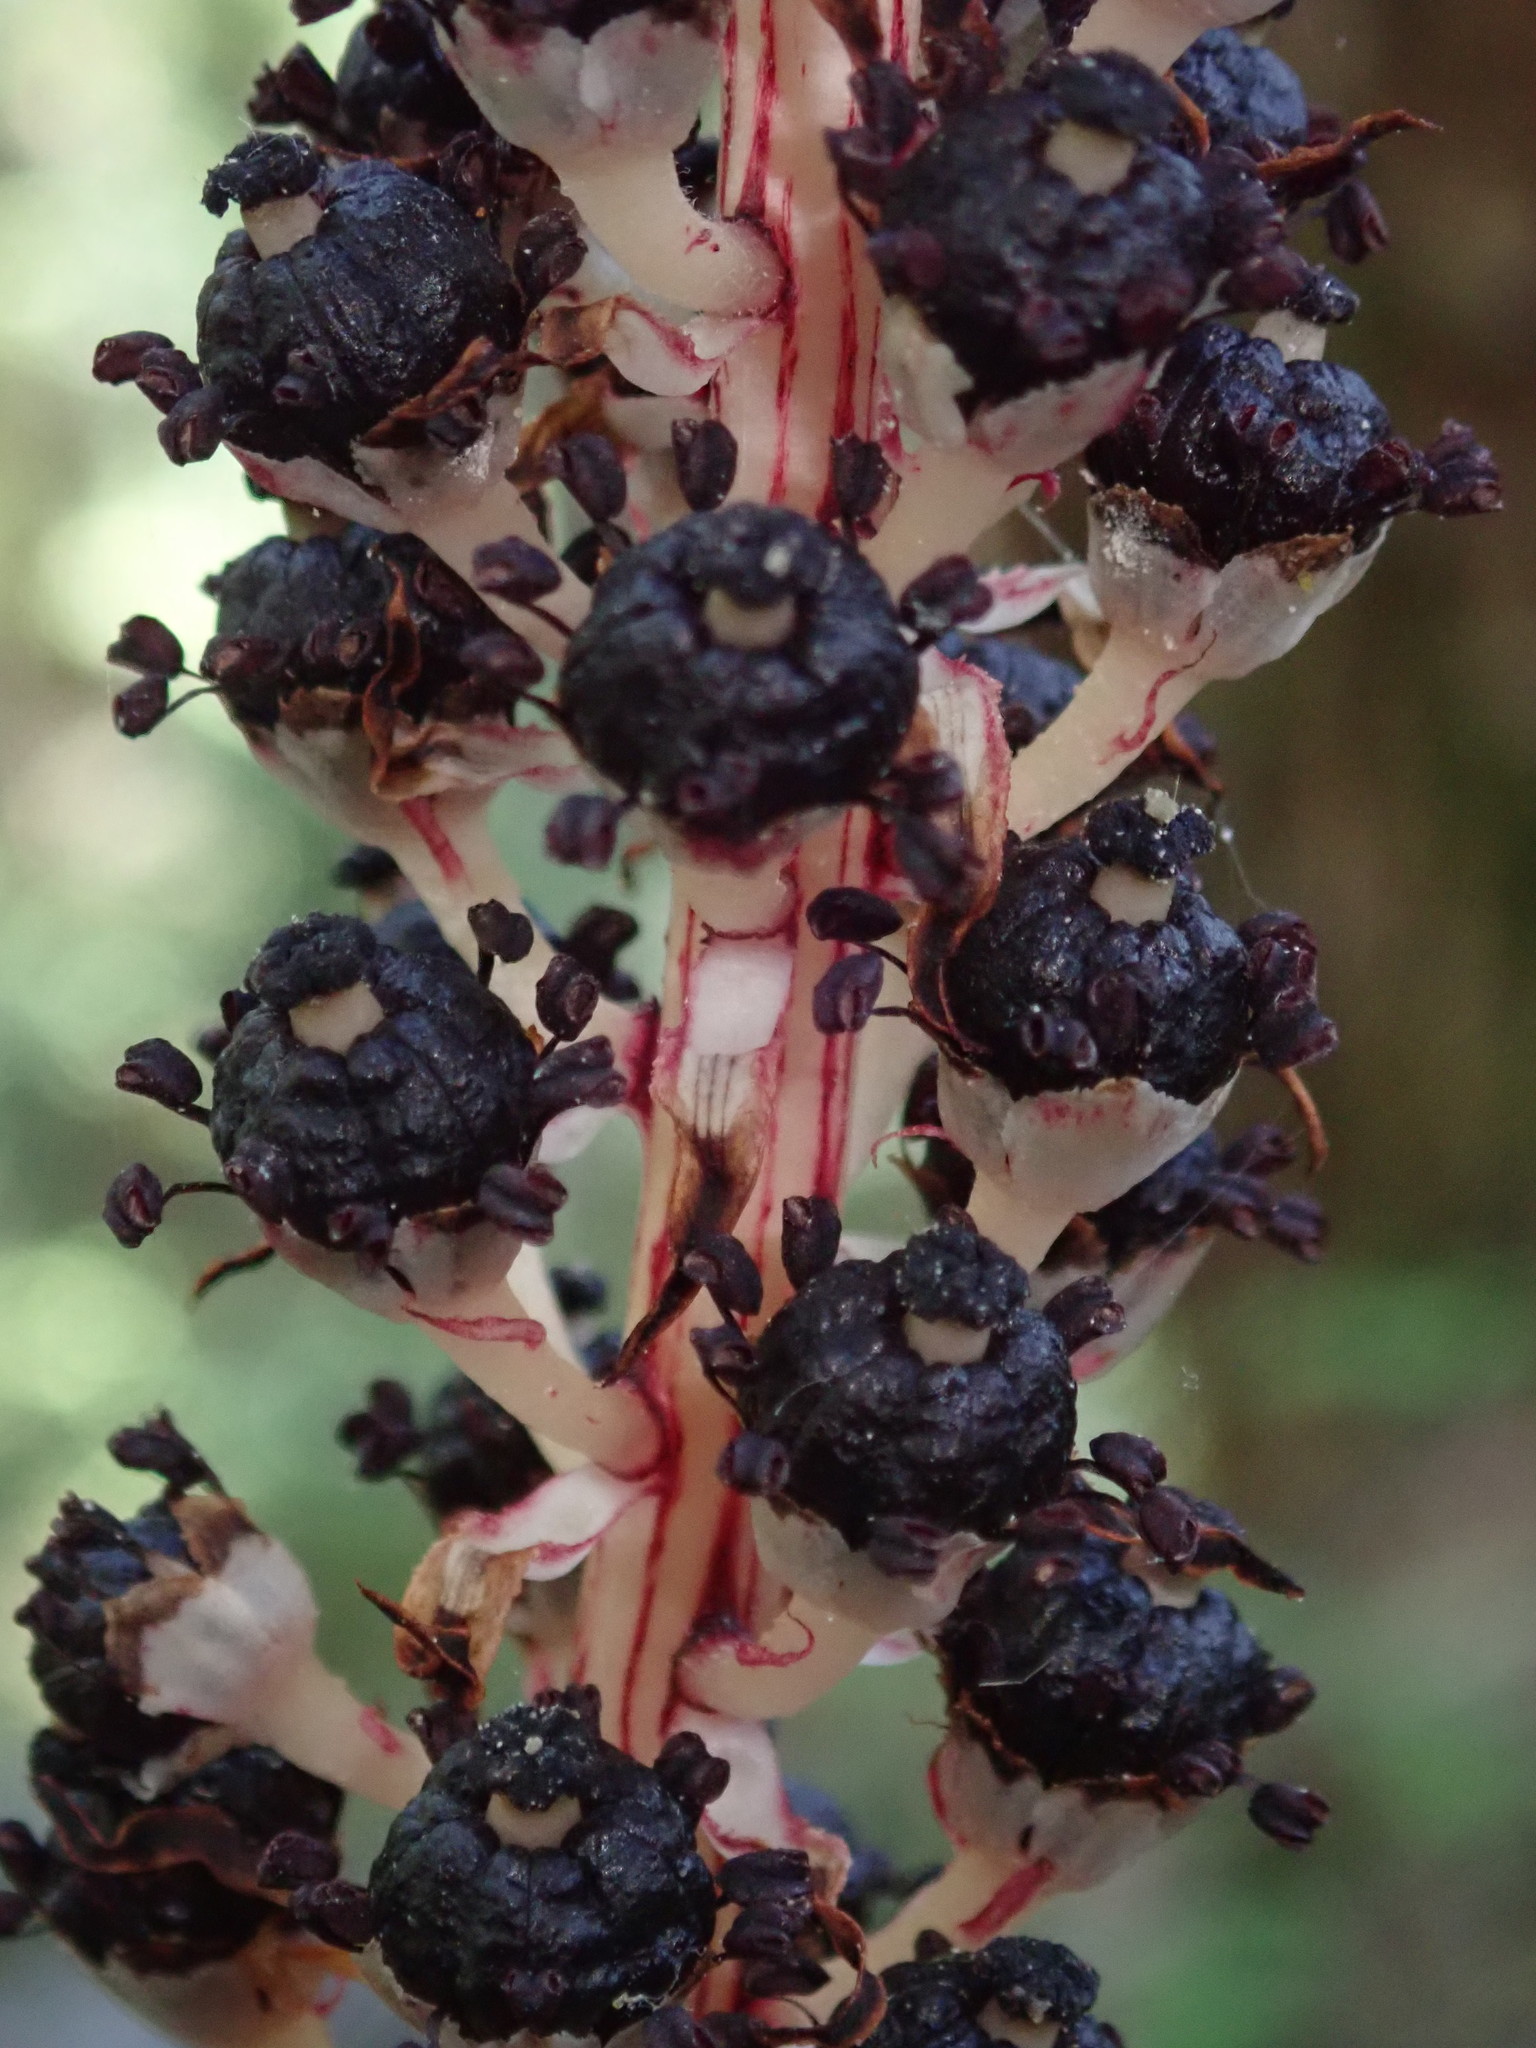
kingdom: Plantae
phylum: Tracheophyta
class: Magnoliopsida
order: Ericales
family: Ericaceae
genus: Allotropa
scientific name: Allotropa virgata
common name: Candy-striped allotropa
